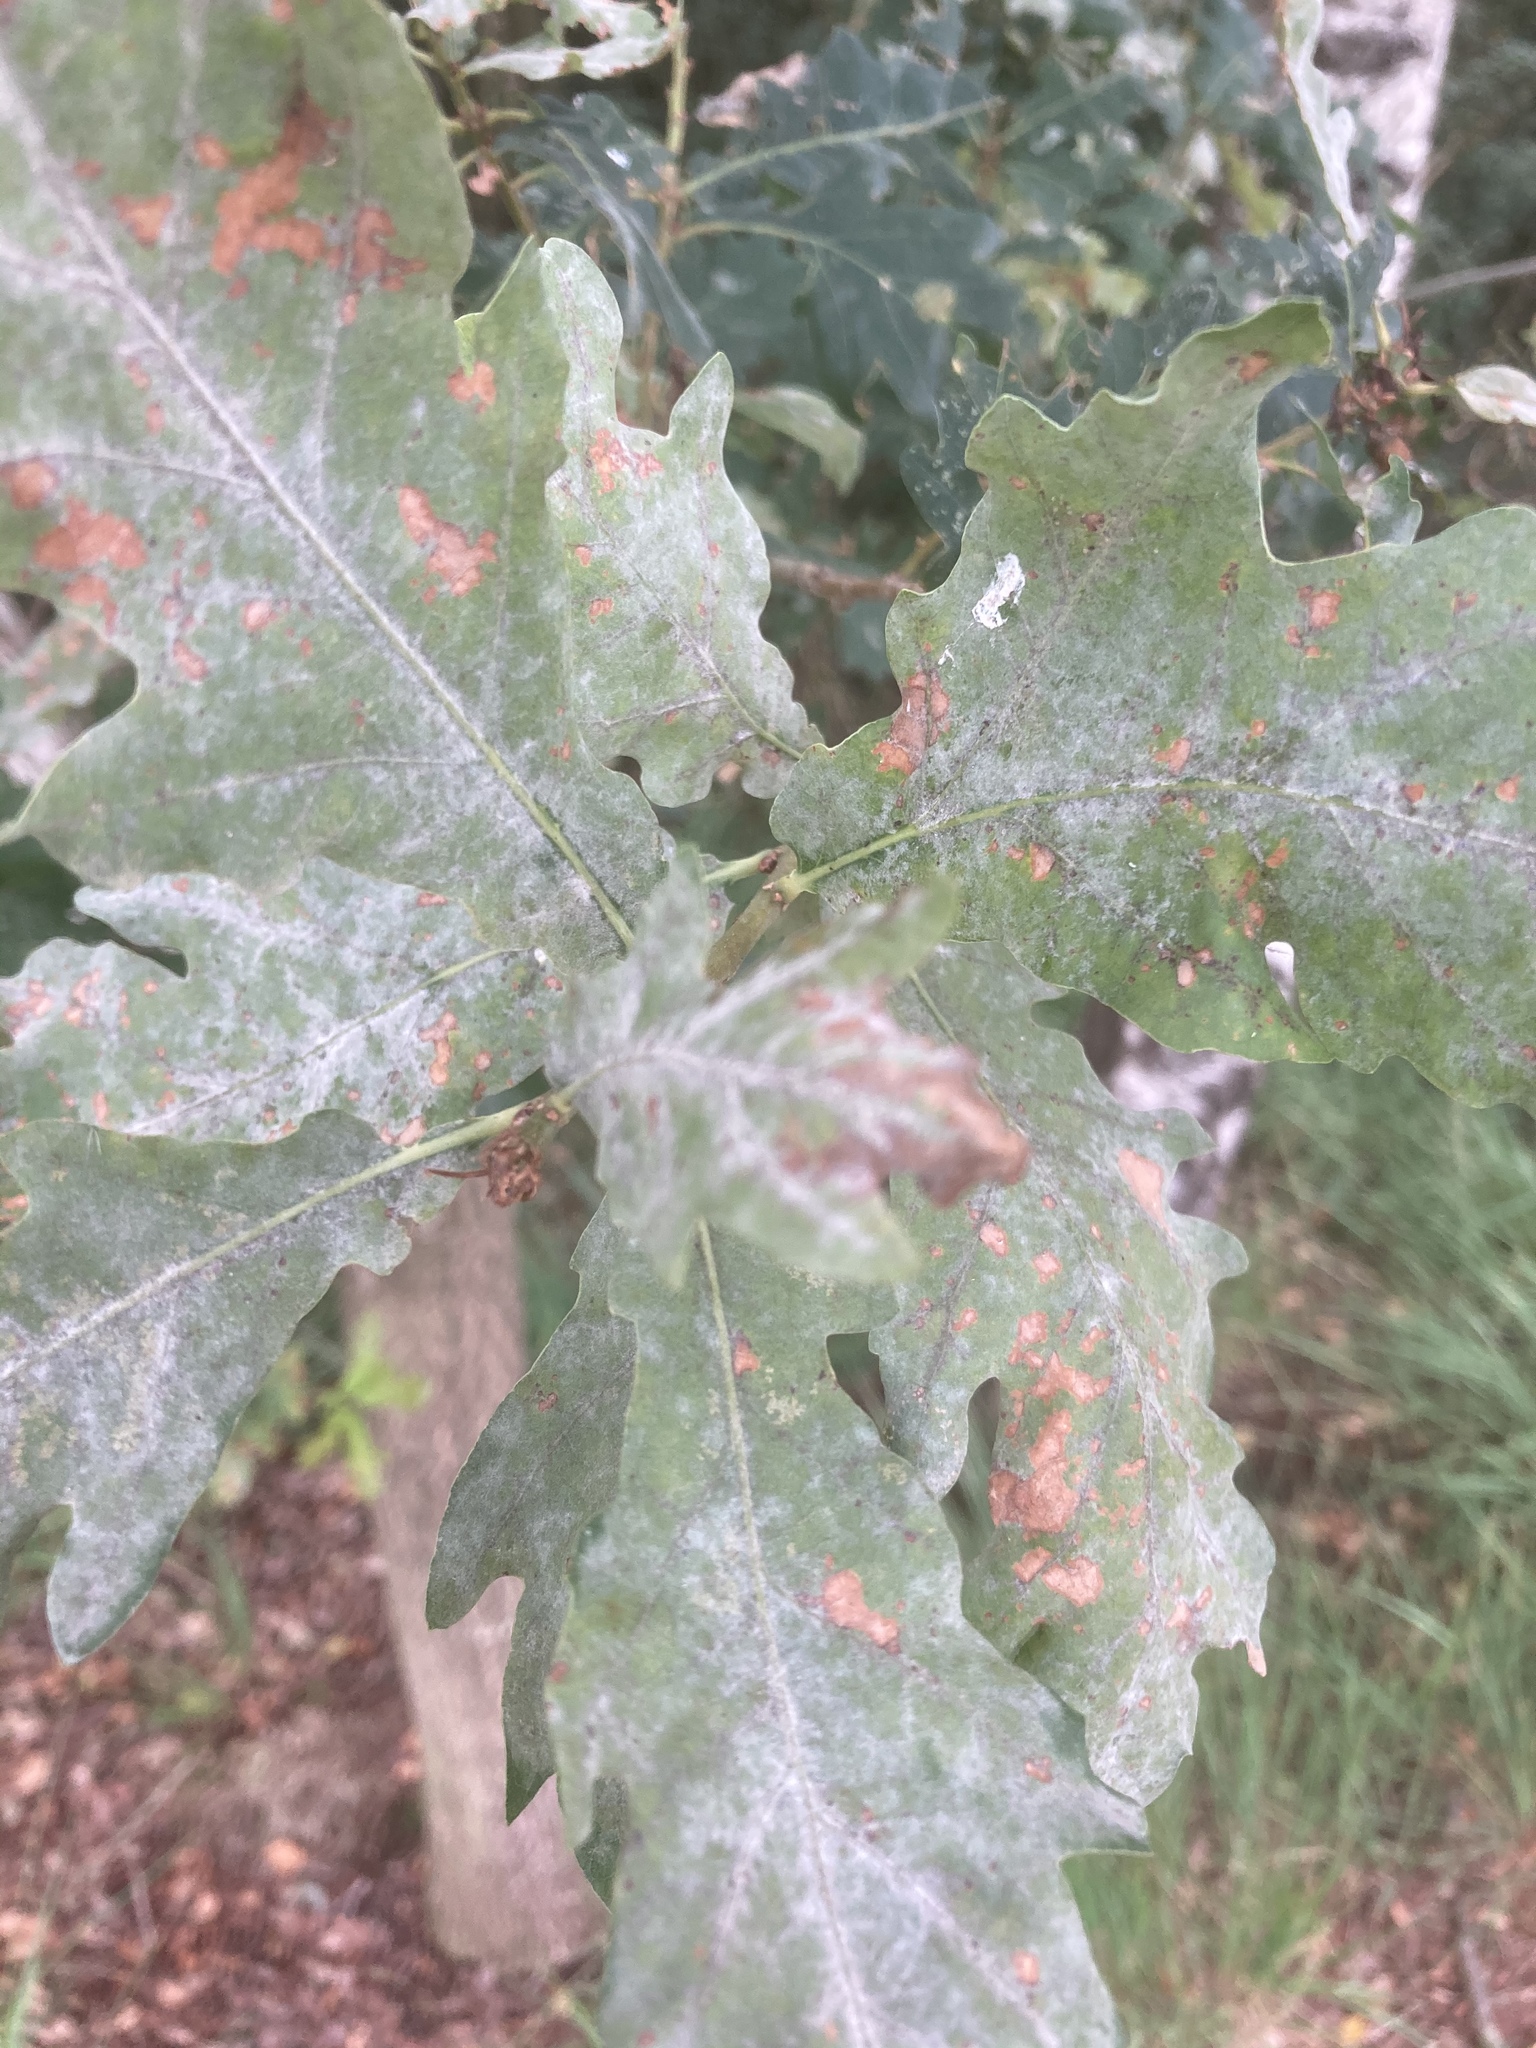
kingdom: Fungi
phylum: Ascomycota
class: Leotiomycetes
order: Helotiales
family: Erysiphaceae
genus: Erysiphe
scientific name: Erysiphe
